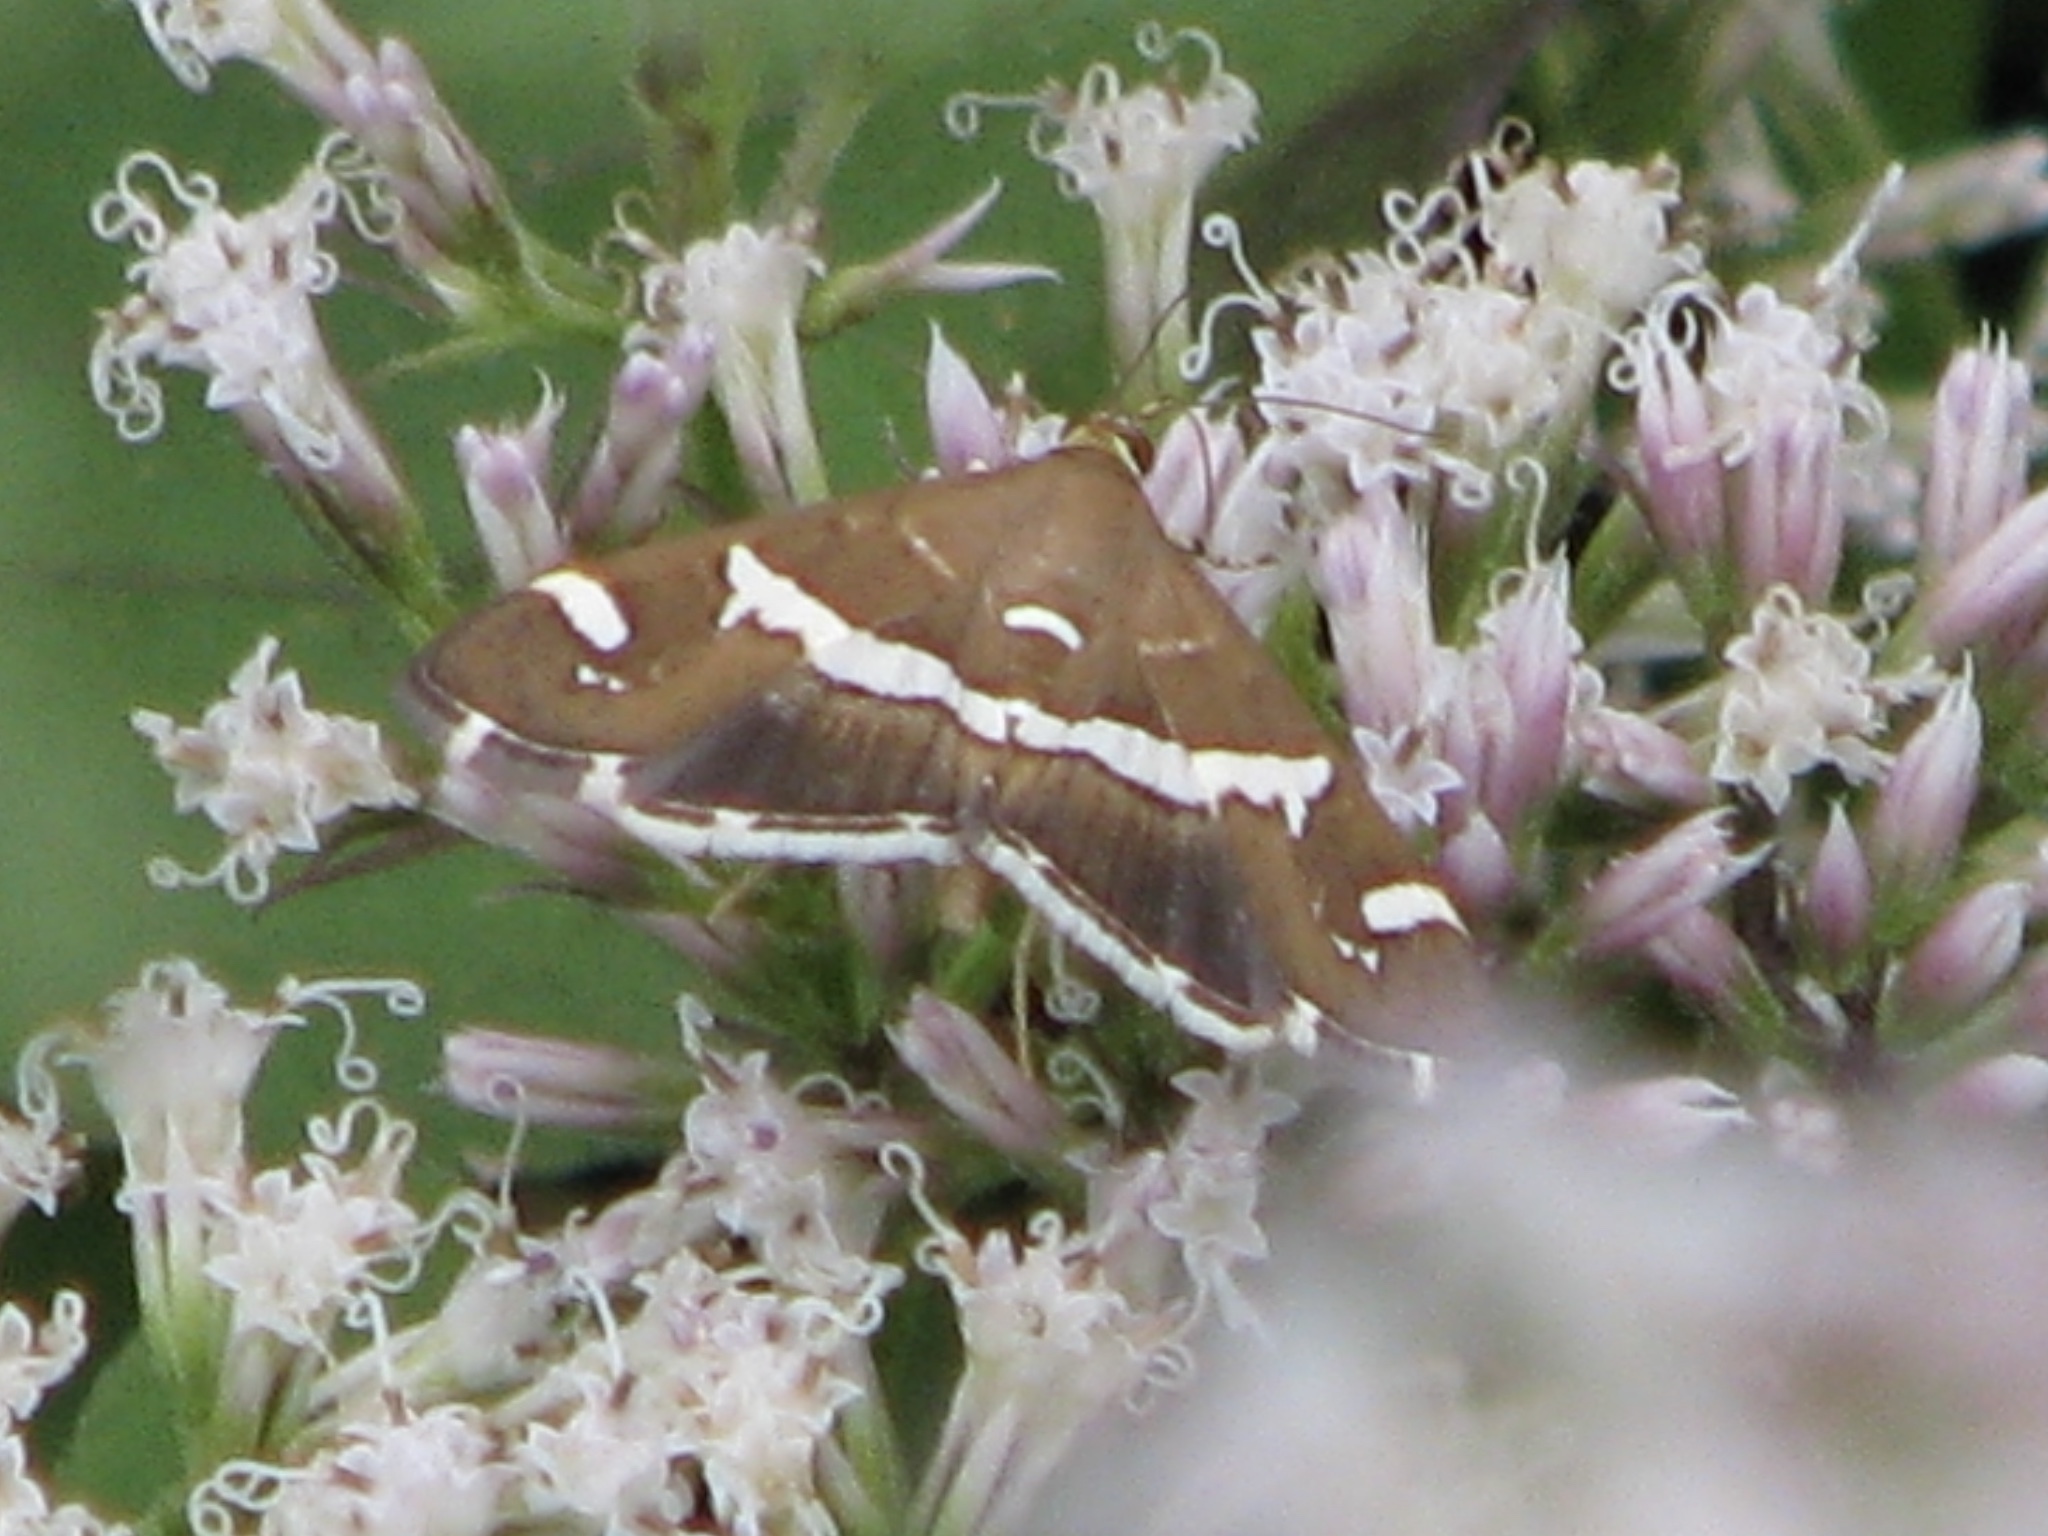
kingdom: Animalia
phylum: Arthropoda
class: Insecta
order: Lepidoptera
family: Crambidae
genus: Spoladea
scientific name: Spoladea recurvalis
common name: Beet webworm moth
